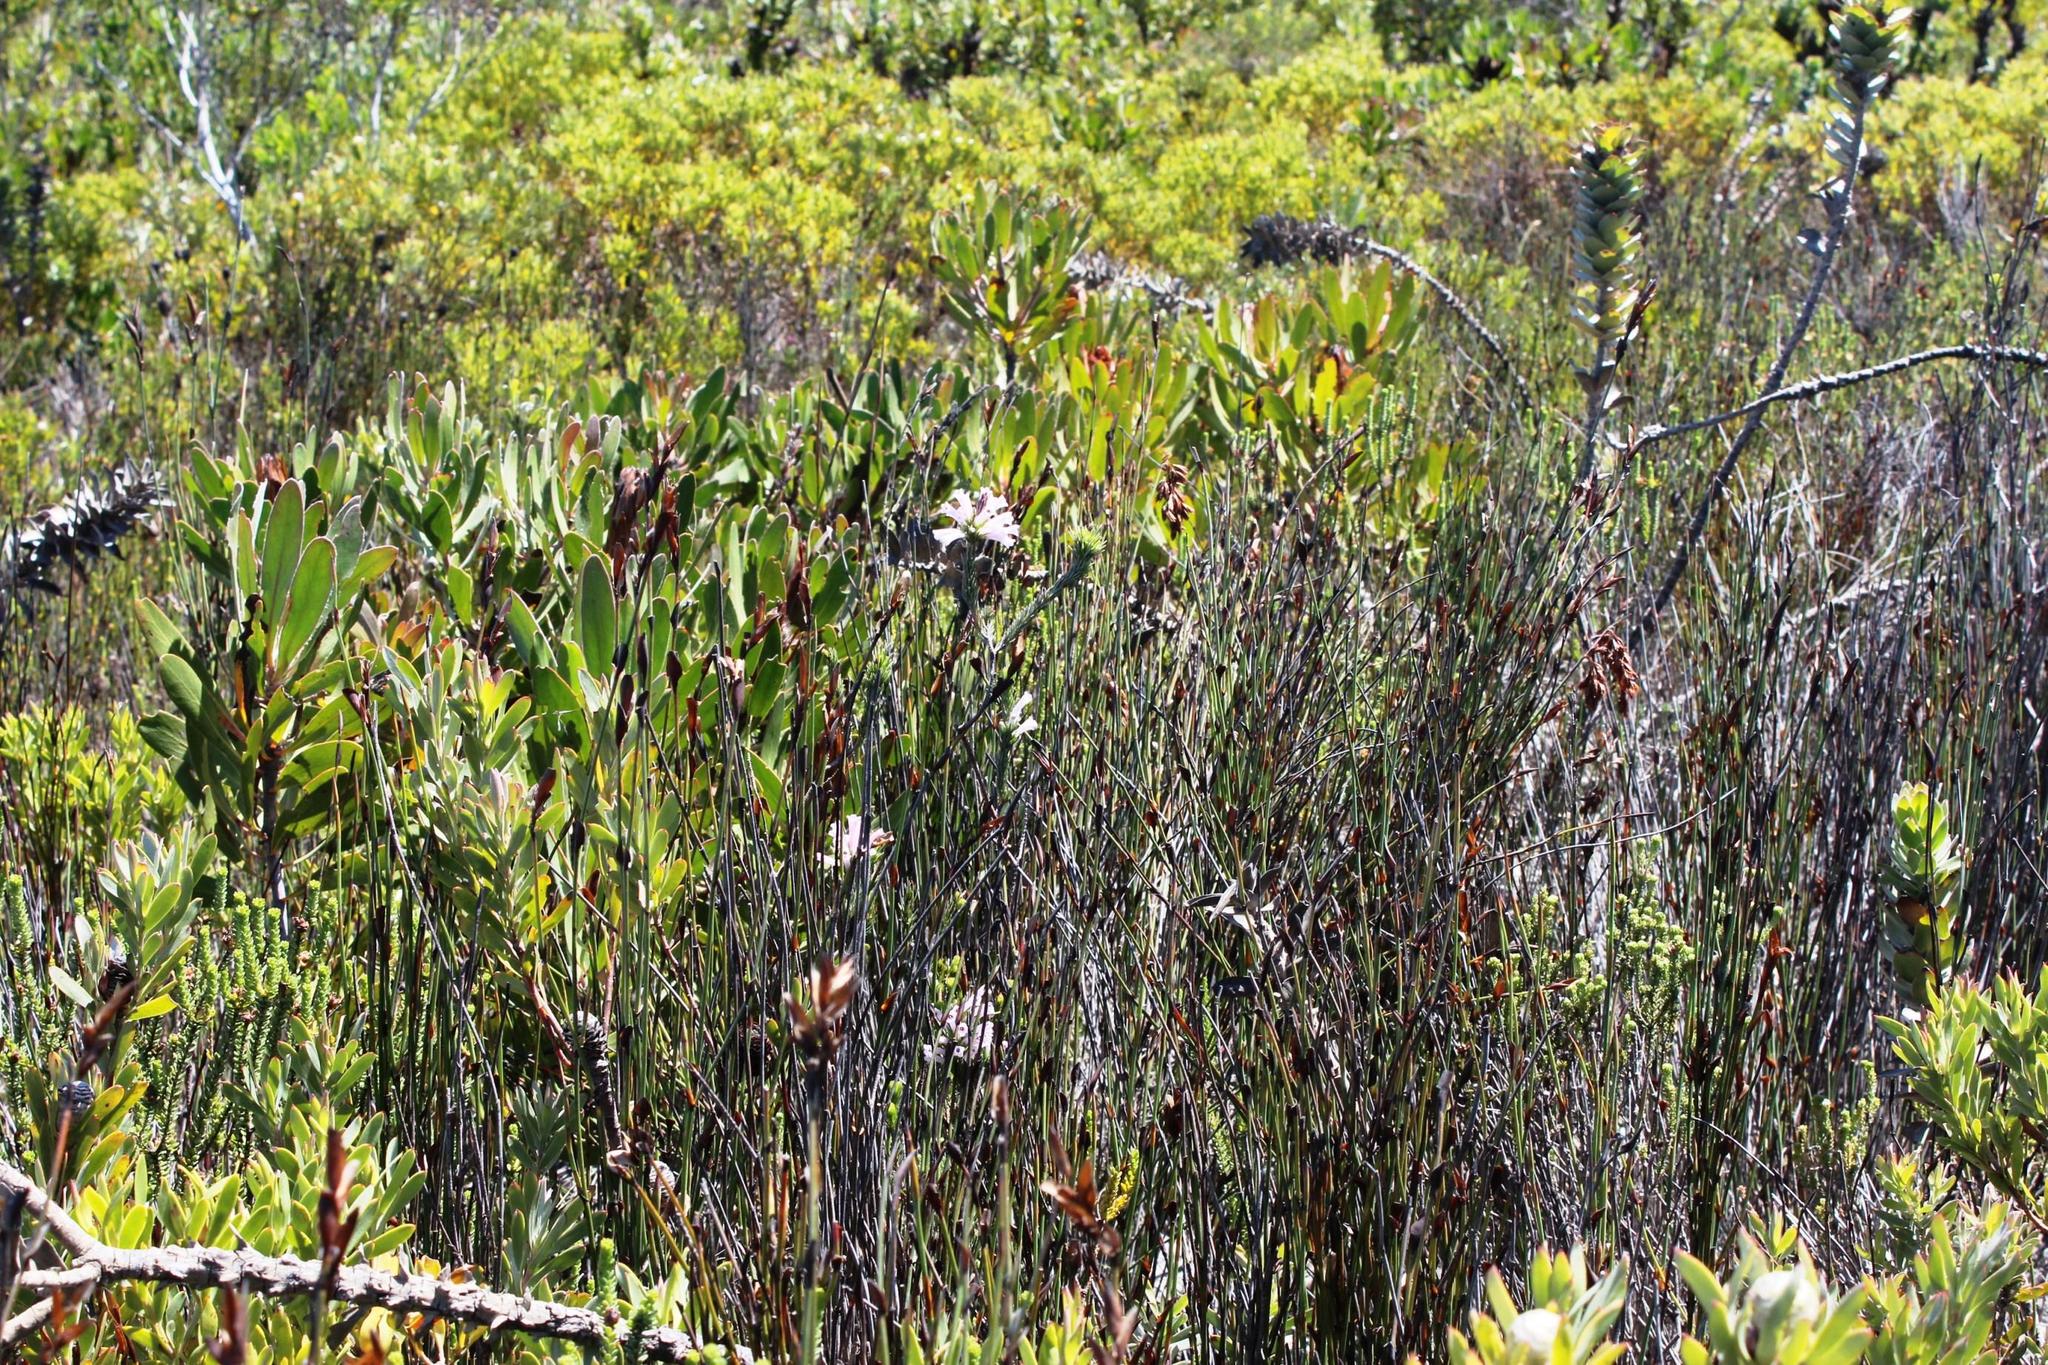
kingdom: Plantae
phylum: Tracheophyta
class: Magnoliopsida
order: Ericales
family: Ericaceae
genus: Erica
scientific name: Erica viscaria
